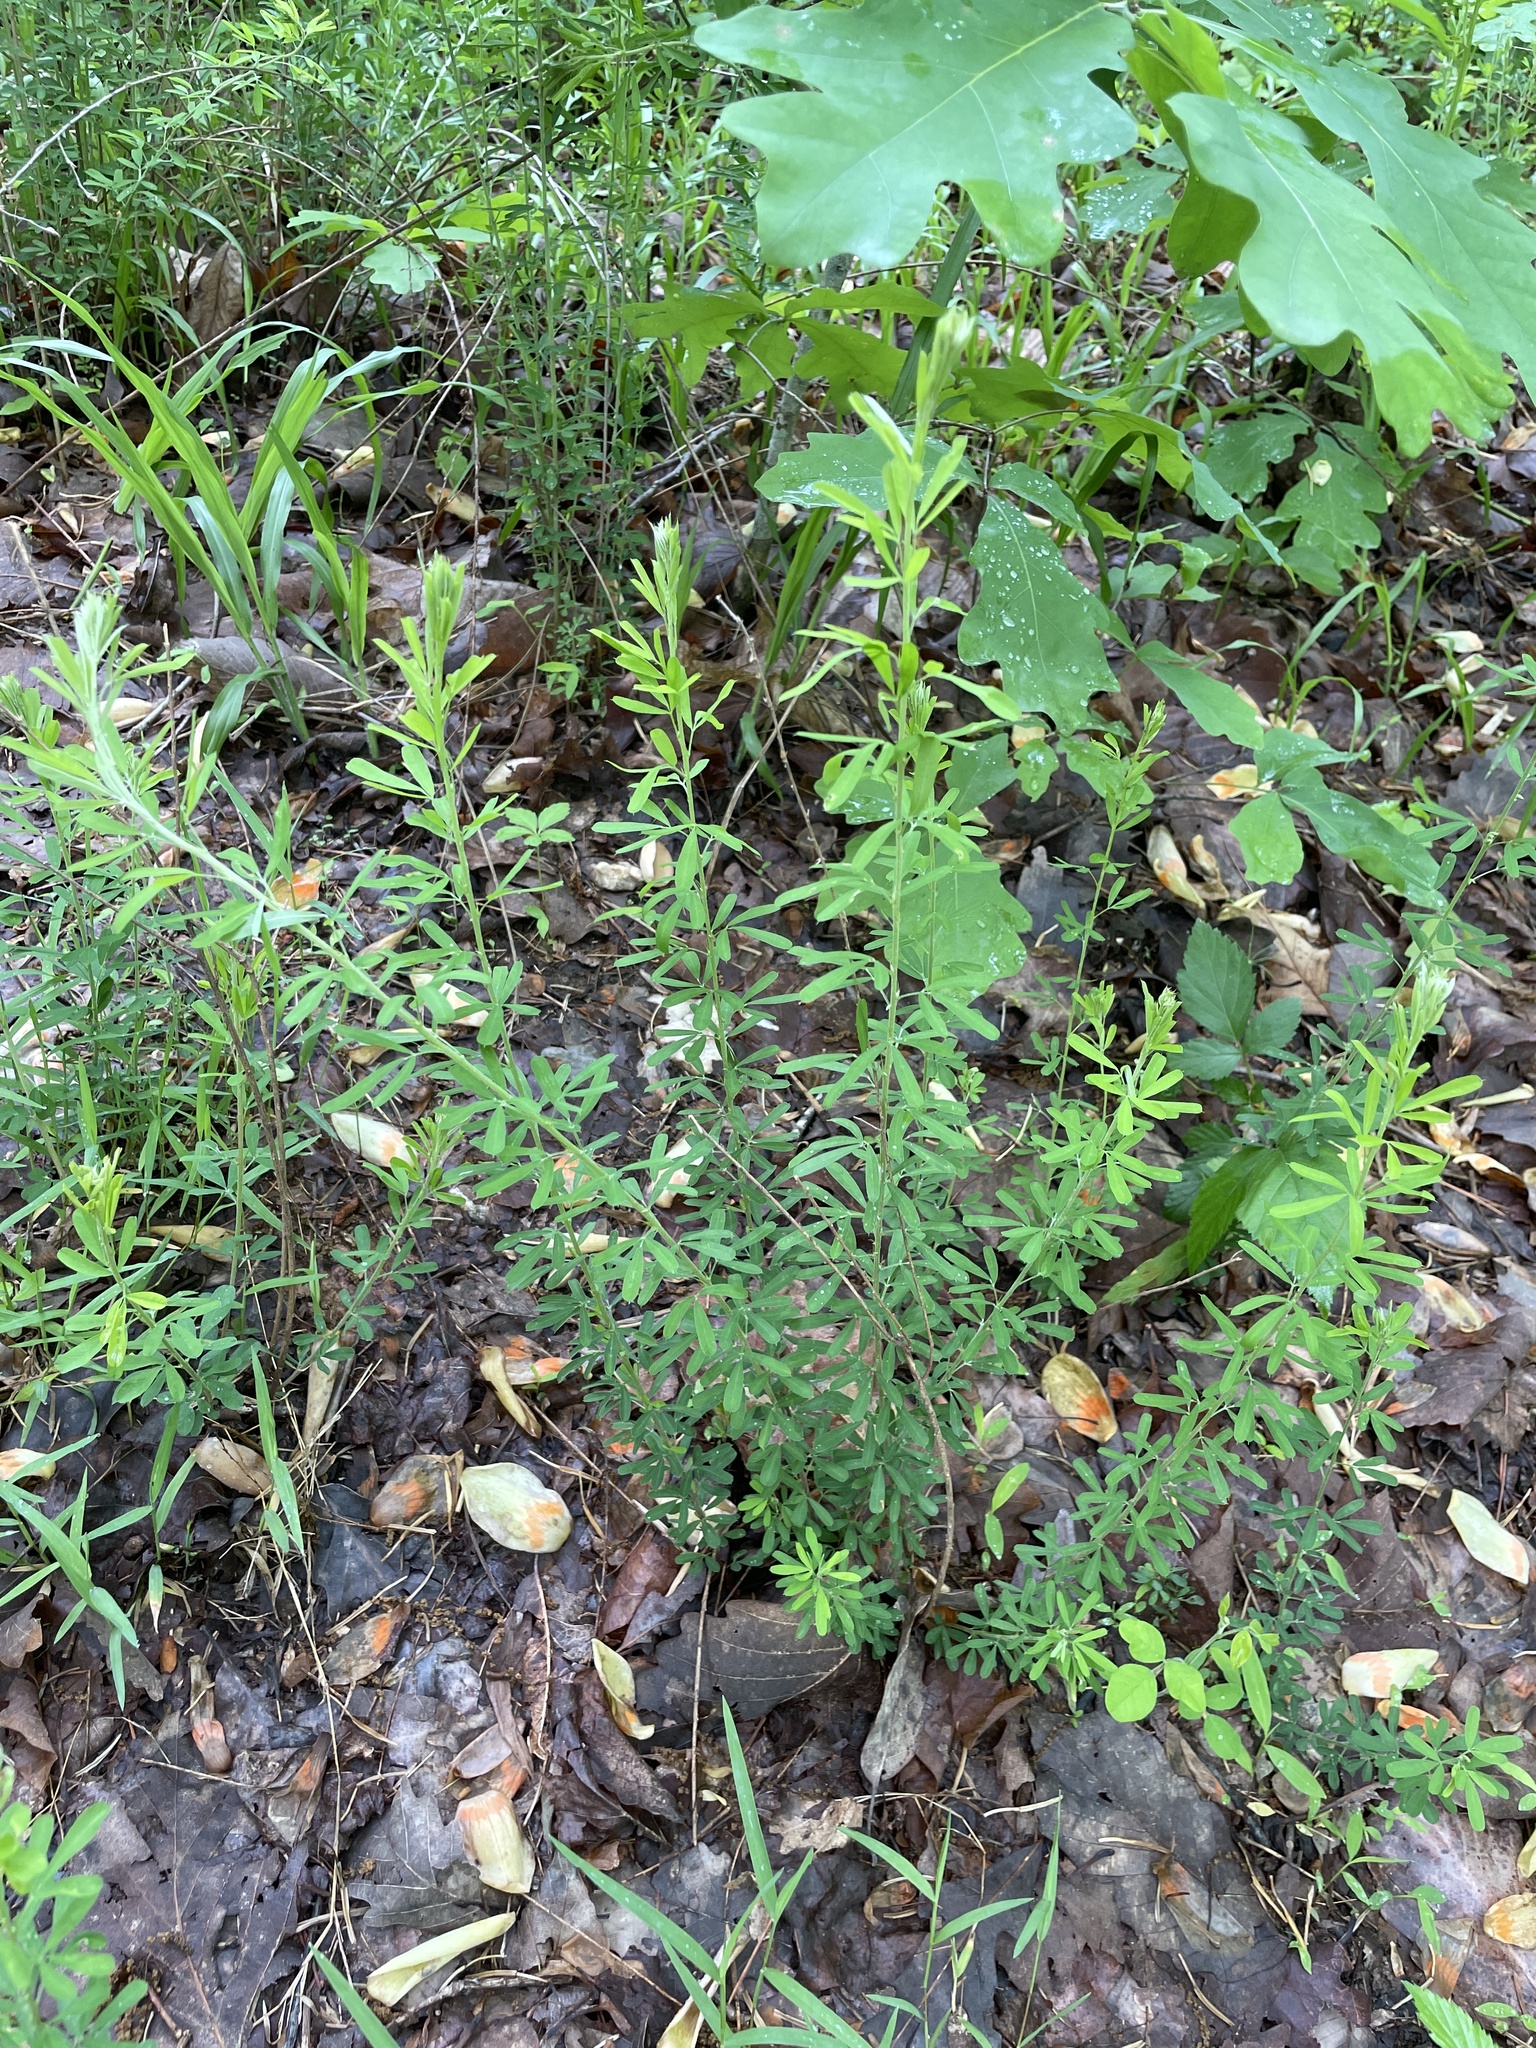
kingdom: Plantae
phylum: Tracheophyta
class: Magnoliopsida
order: Fabales
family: Fabaceae
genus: Lespedeza
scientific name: Lespedeza cuneata
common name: Chinese bush-clover
